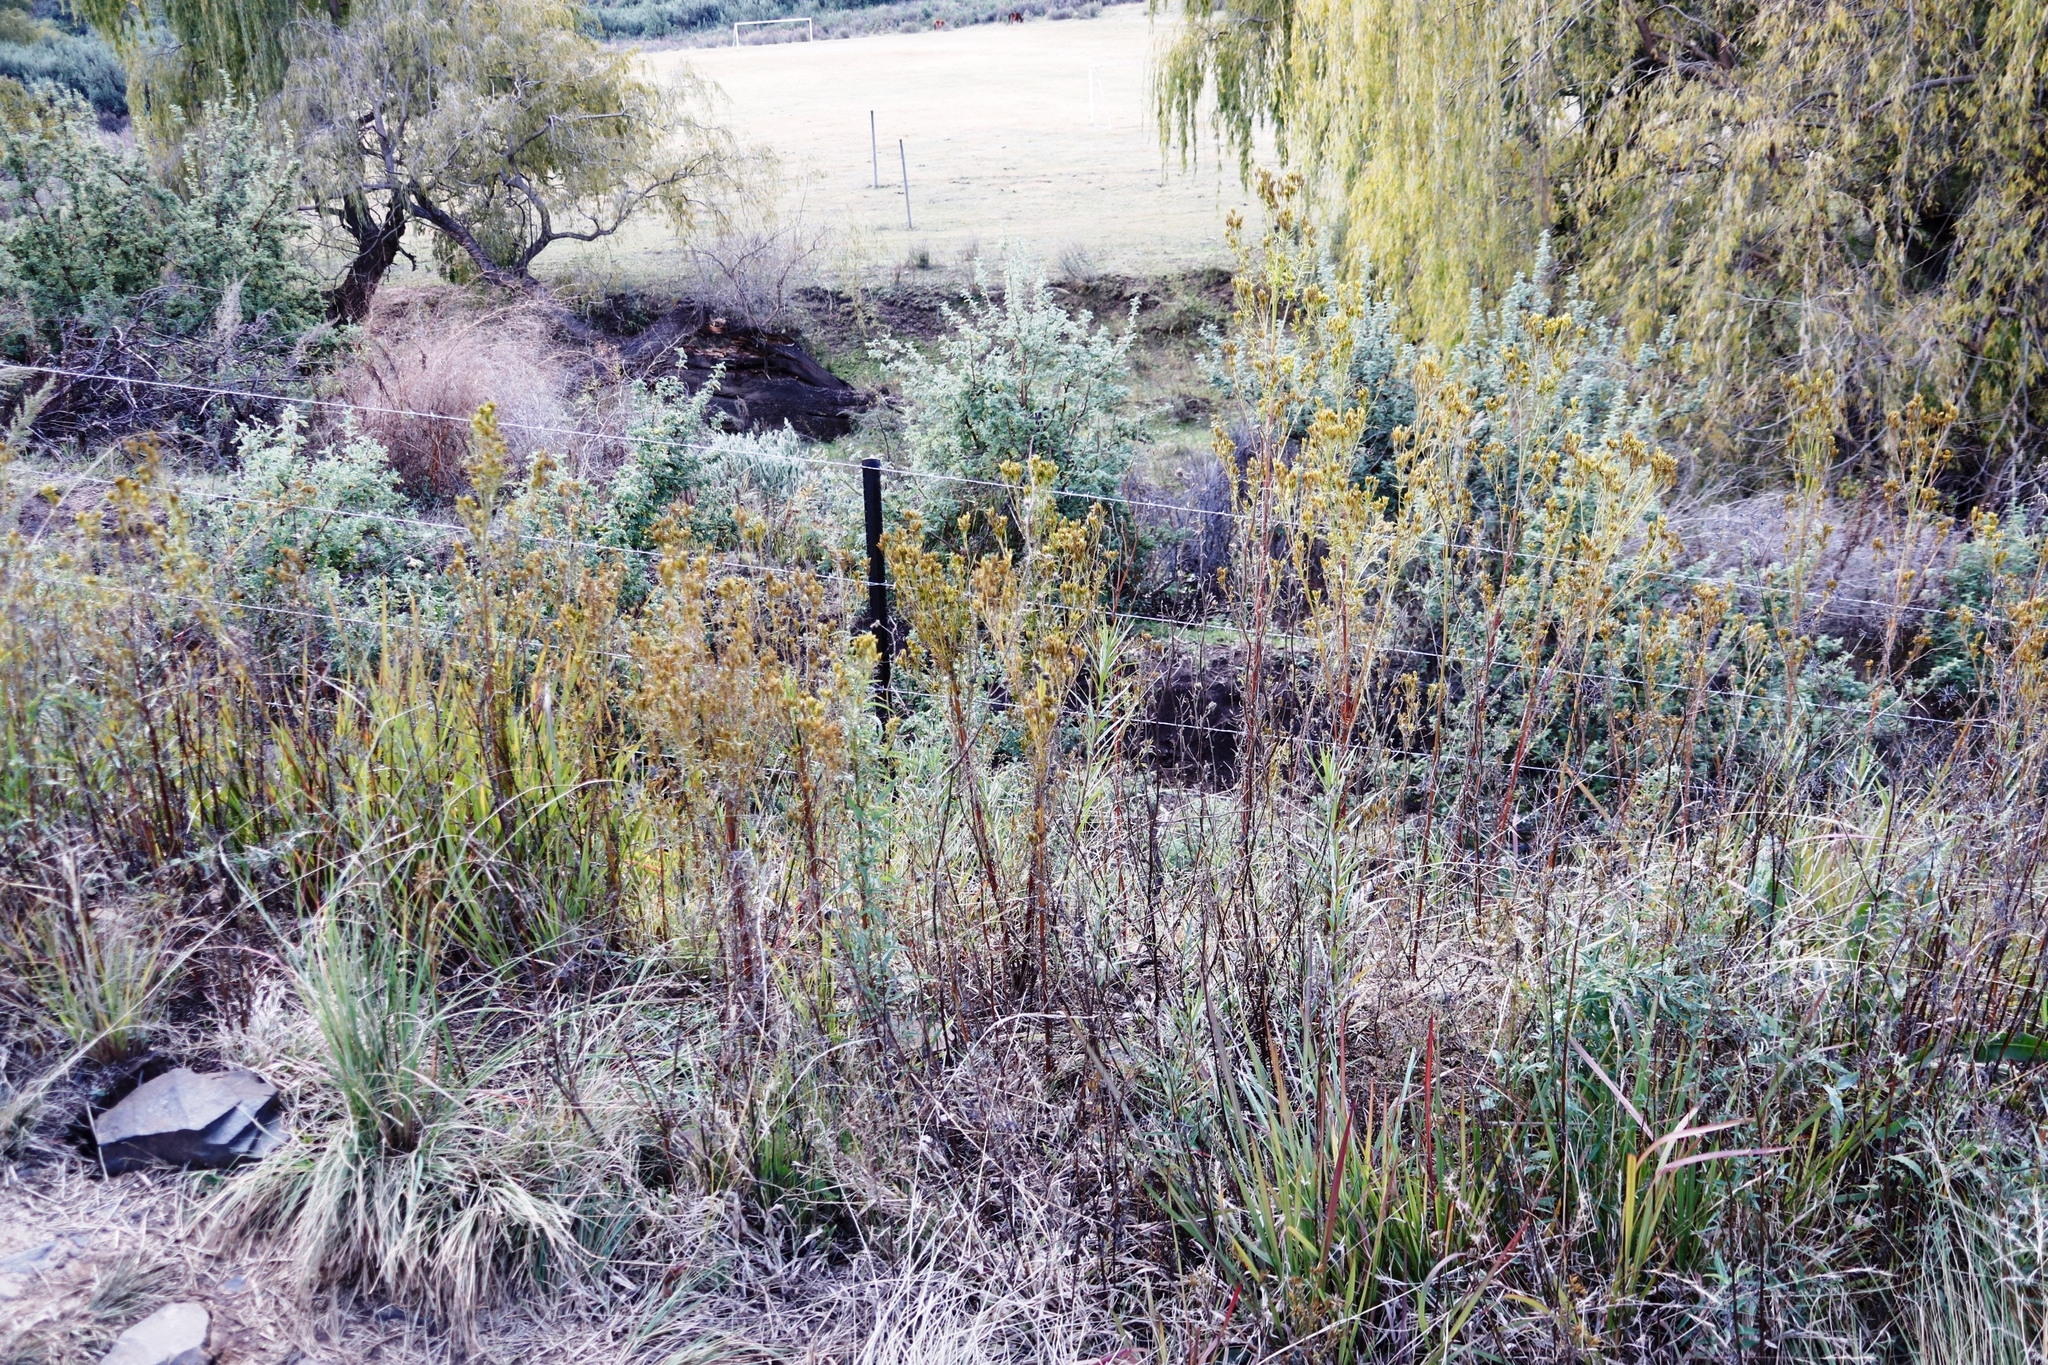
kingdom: Plantae
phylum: Tracheophyta
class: Magnoliopsida
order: Asterales
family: Asteraceae
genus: Tagetes
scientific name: Tagetes minuta
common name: Muster john henry
